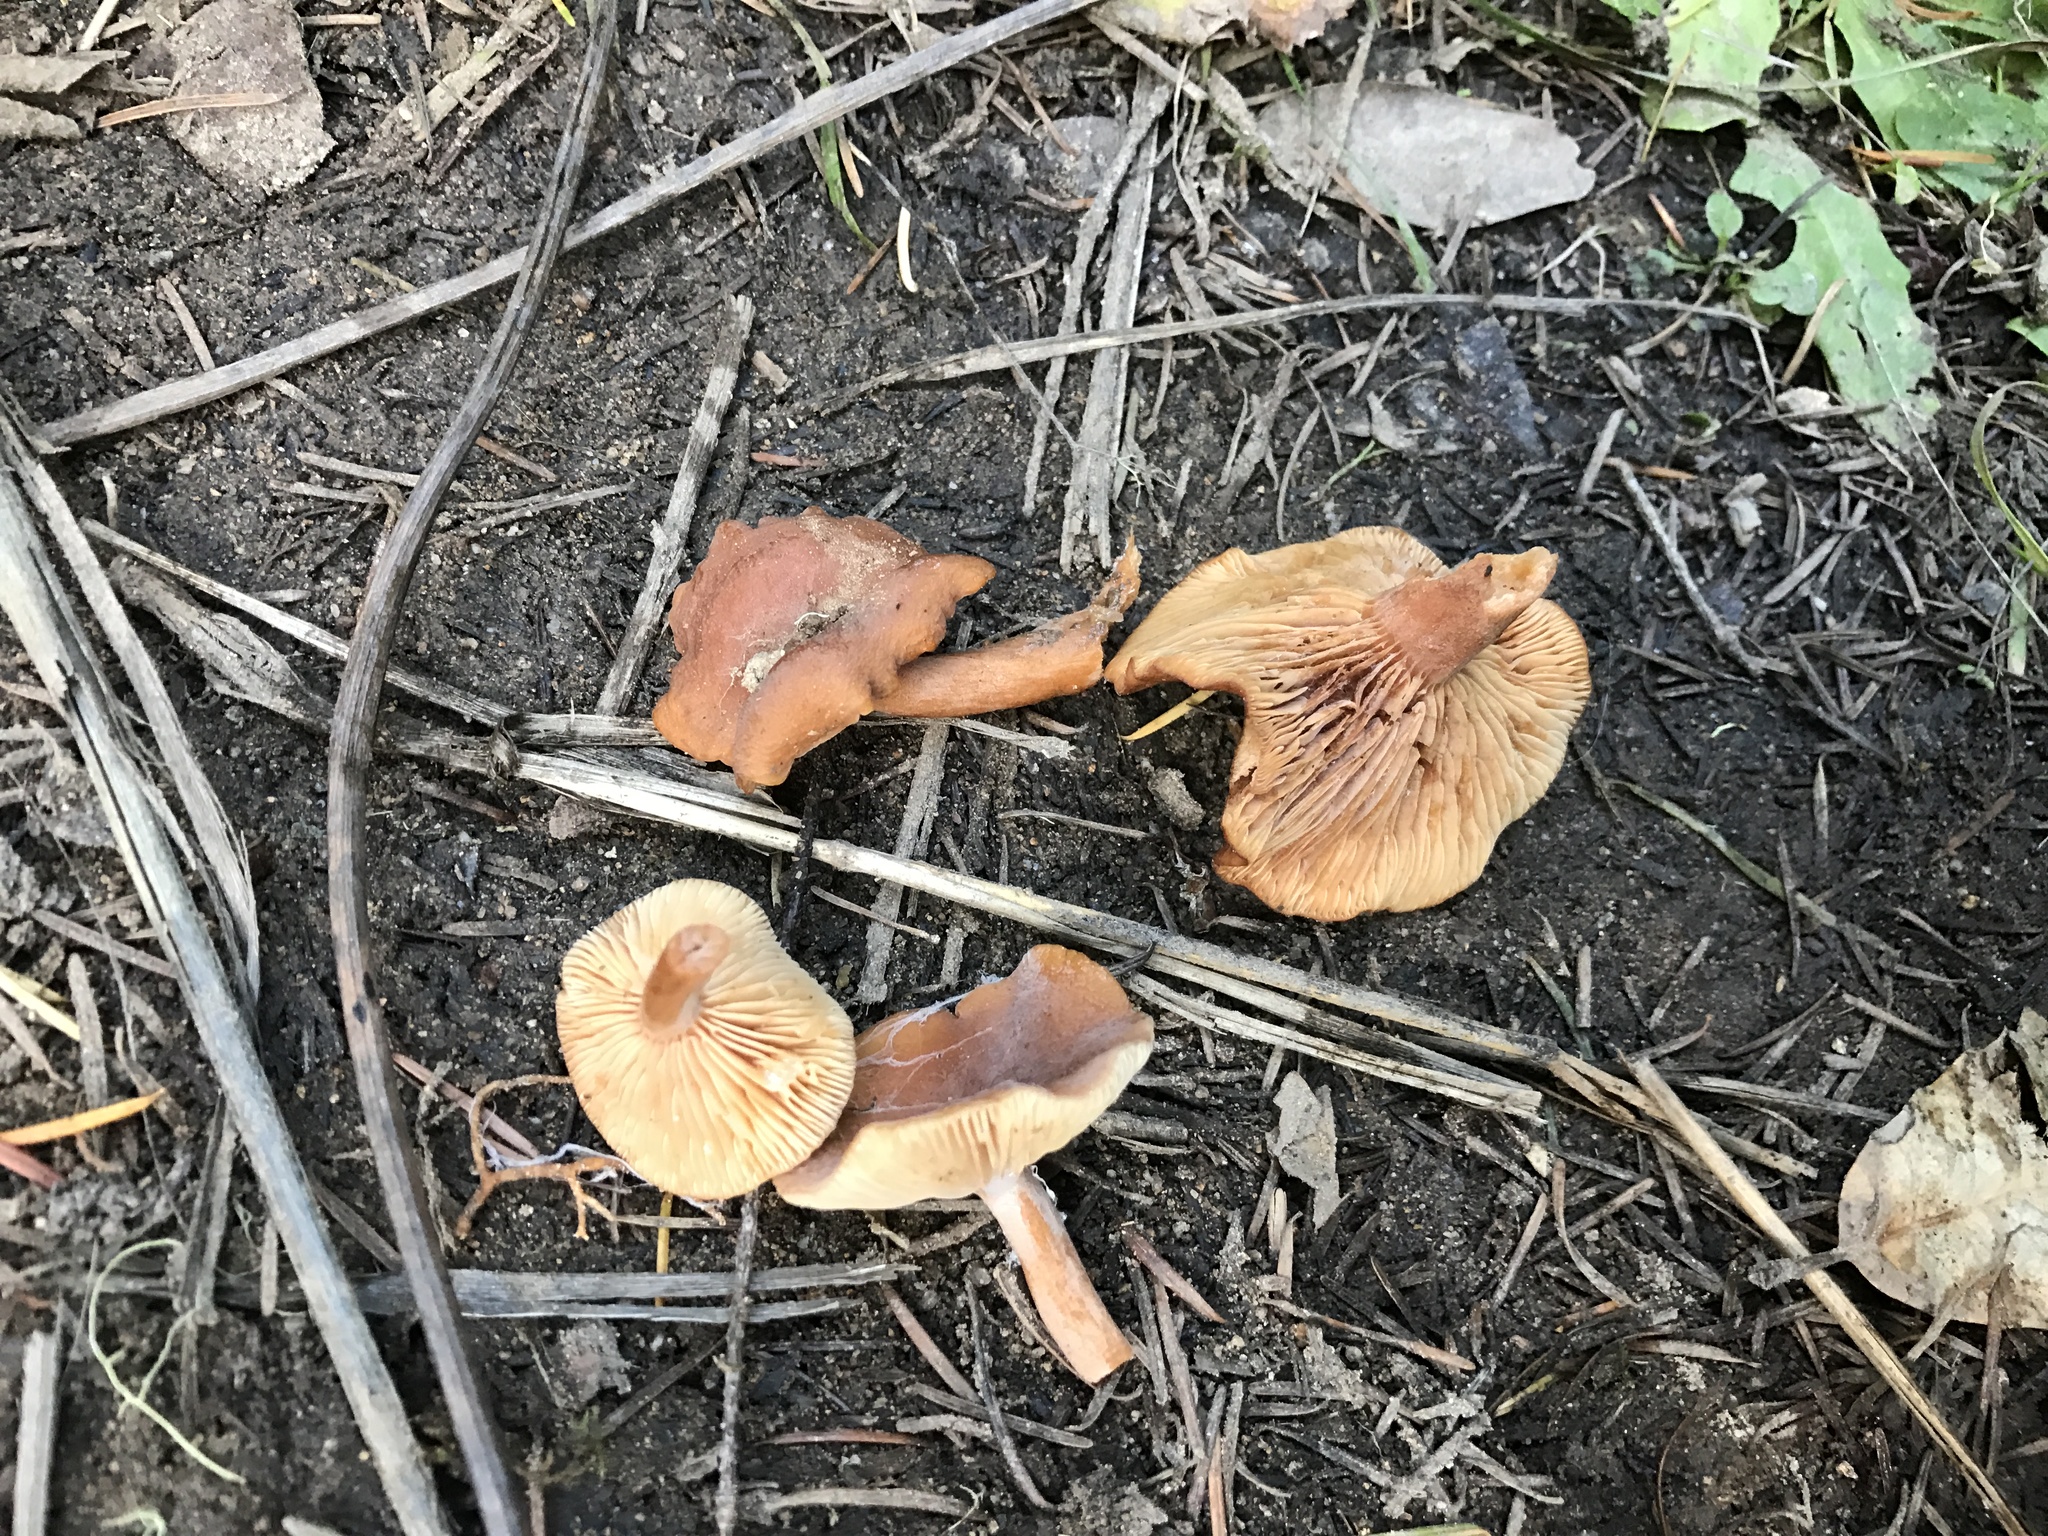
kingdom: Fungi
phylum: Basidiomycota
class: Agaricomycetes
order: Russulales
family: Russulaceae
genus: Lactarius
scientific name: Lactarius rubidus
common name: Candy cap
